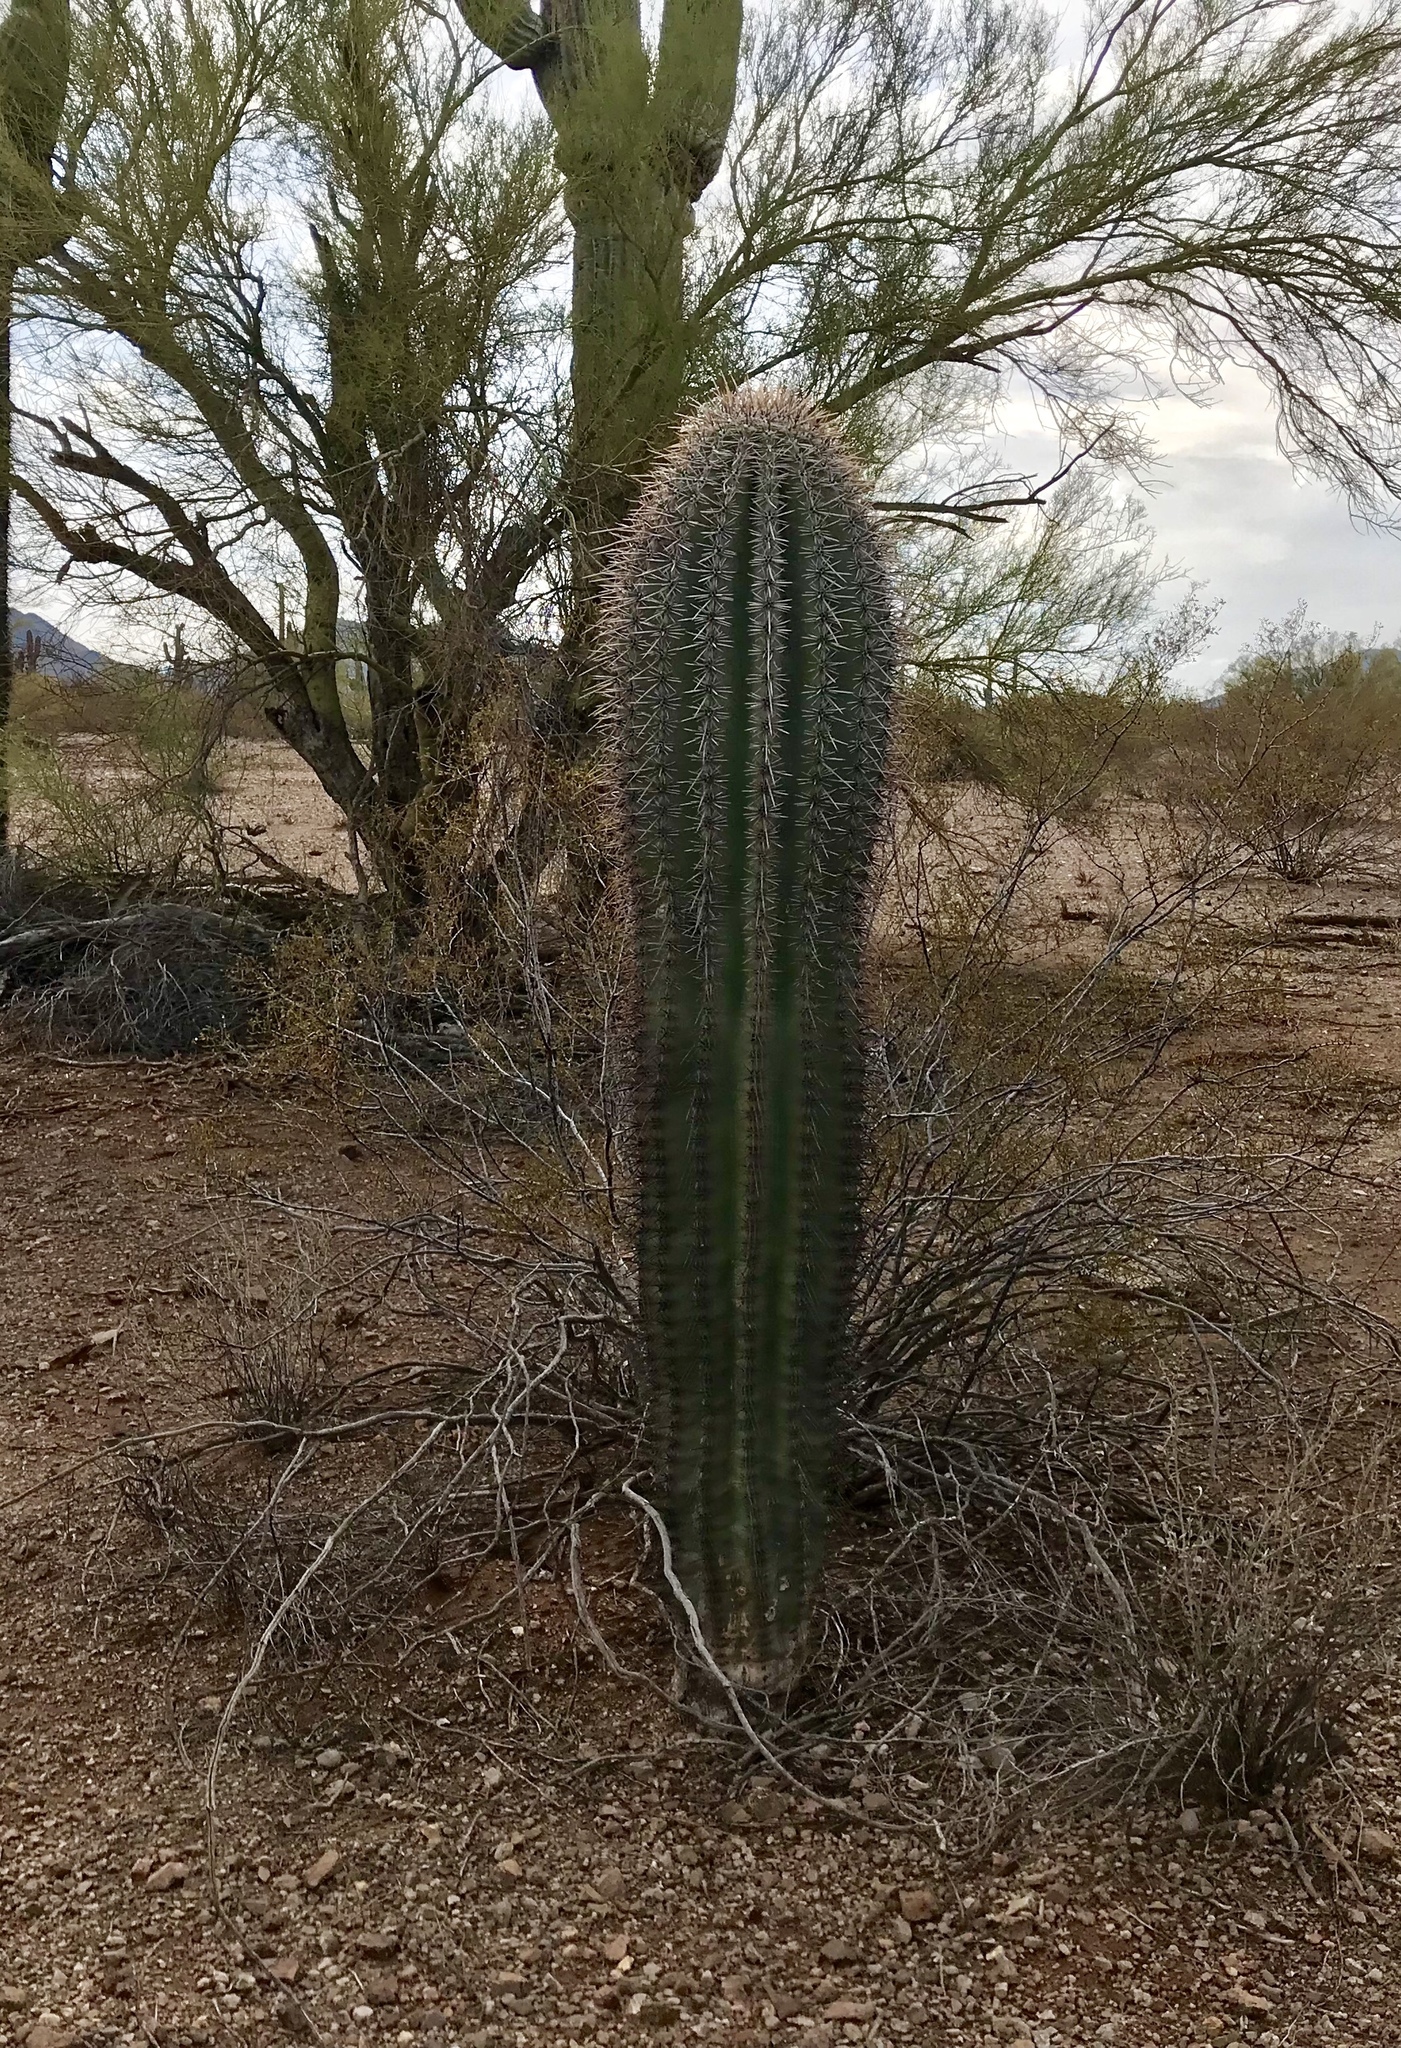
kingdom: Plantae
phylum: Tracheophyta
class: Magnoliopsida
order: Caryophyllales
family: Cactaceae
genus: Carnegiea
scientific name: Carnegiea gigantea
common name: Saguaro
